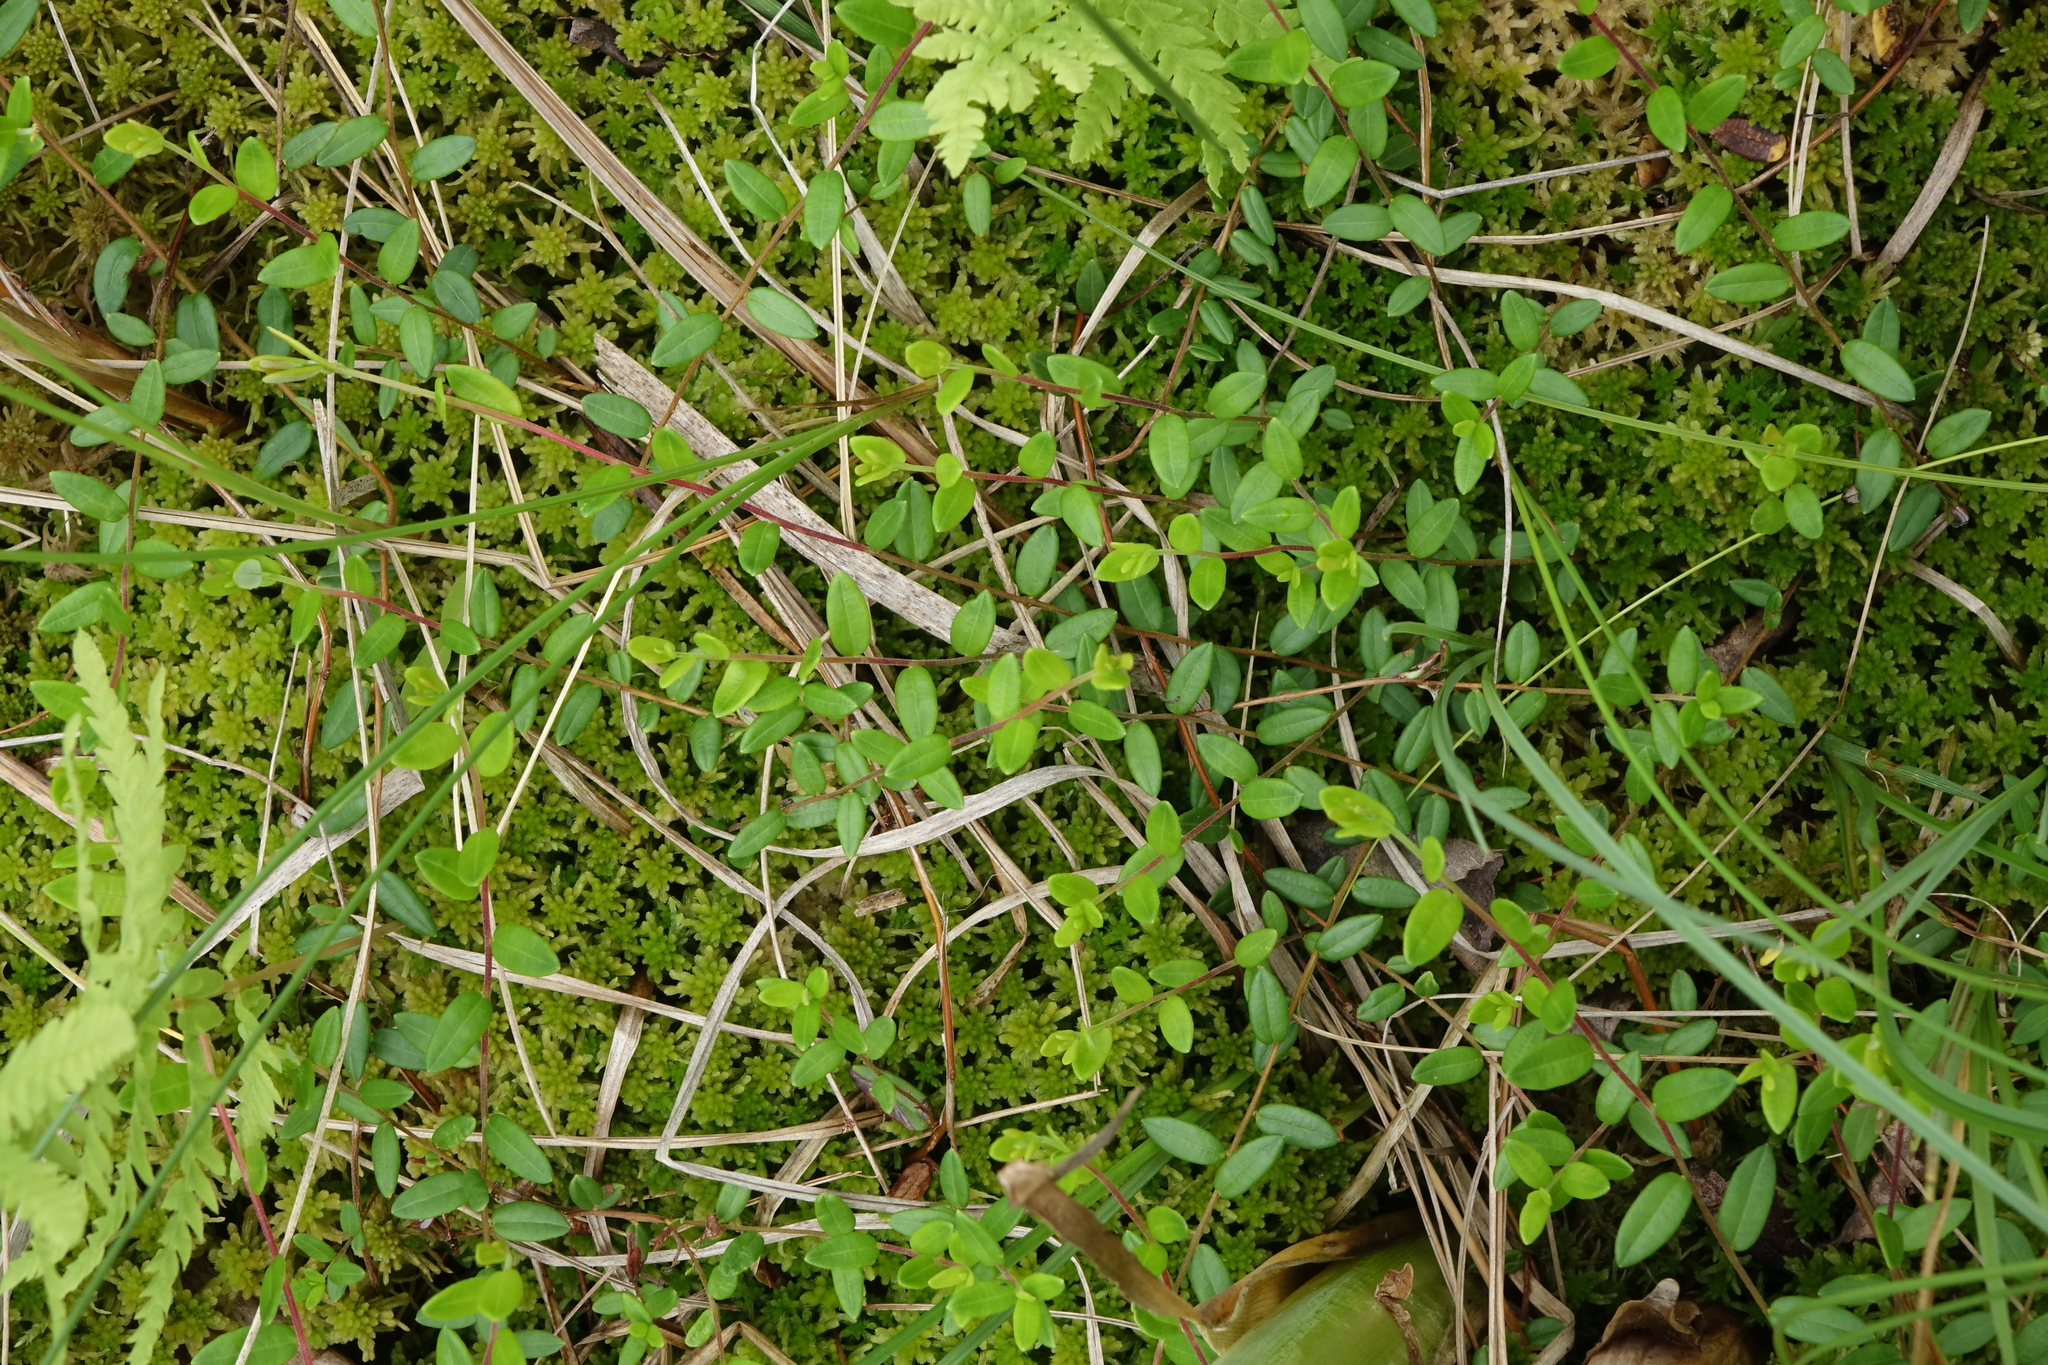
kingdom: Plantae
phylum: Tracheophyta
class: Magnoliopsida
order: Ericales
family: Ericaceae
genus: Vaccinium
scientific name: Vaccinium oxycoccos
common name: Cranberry
